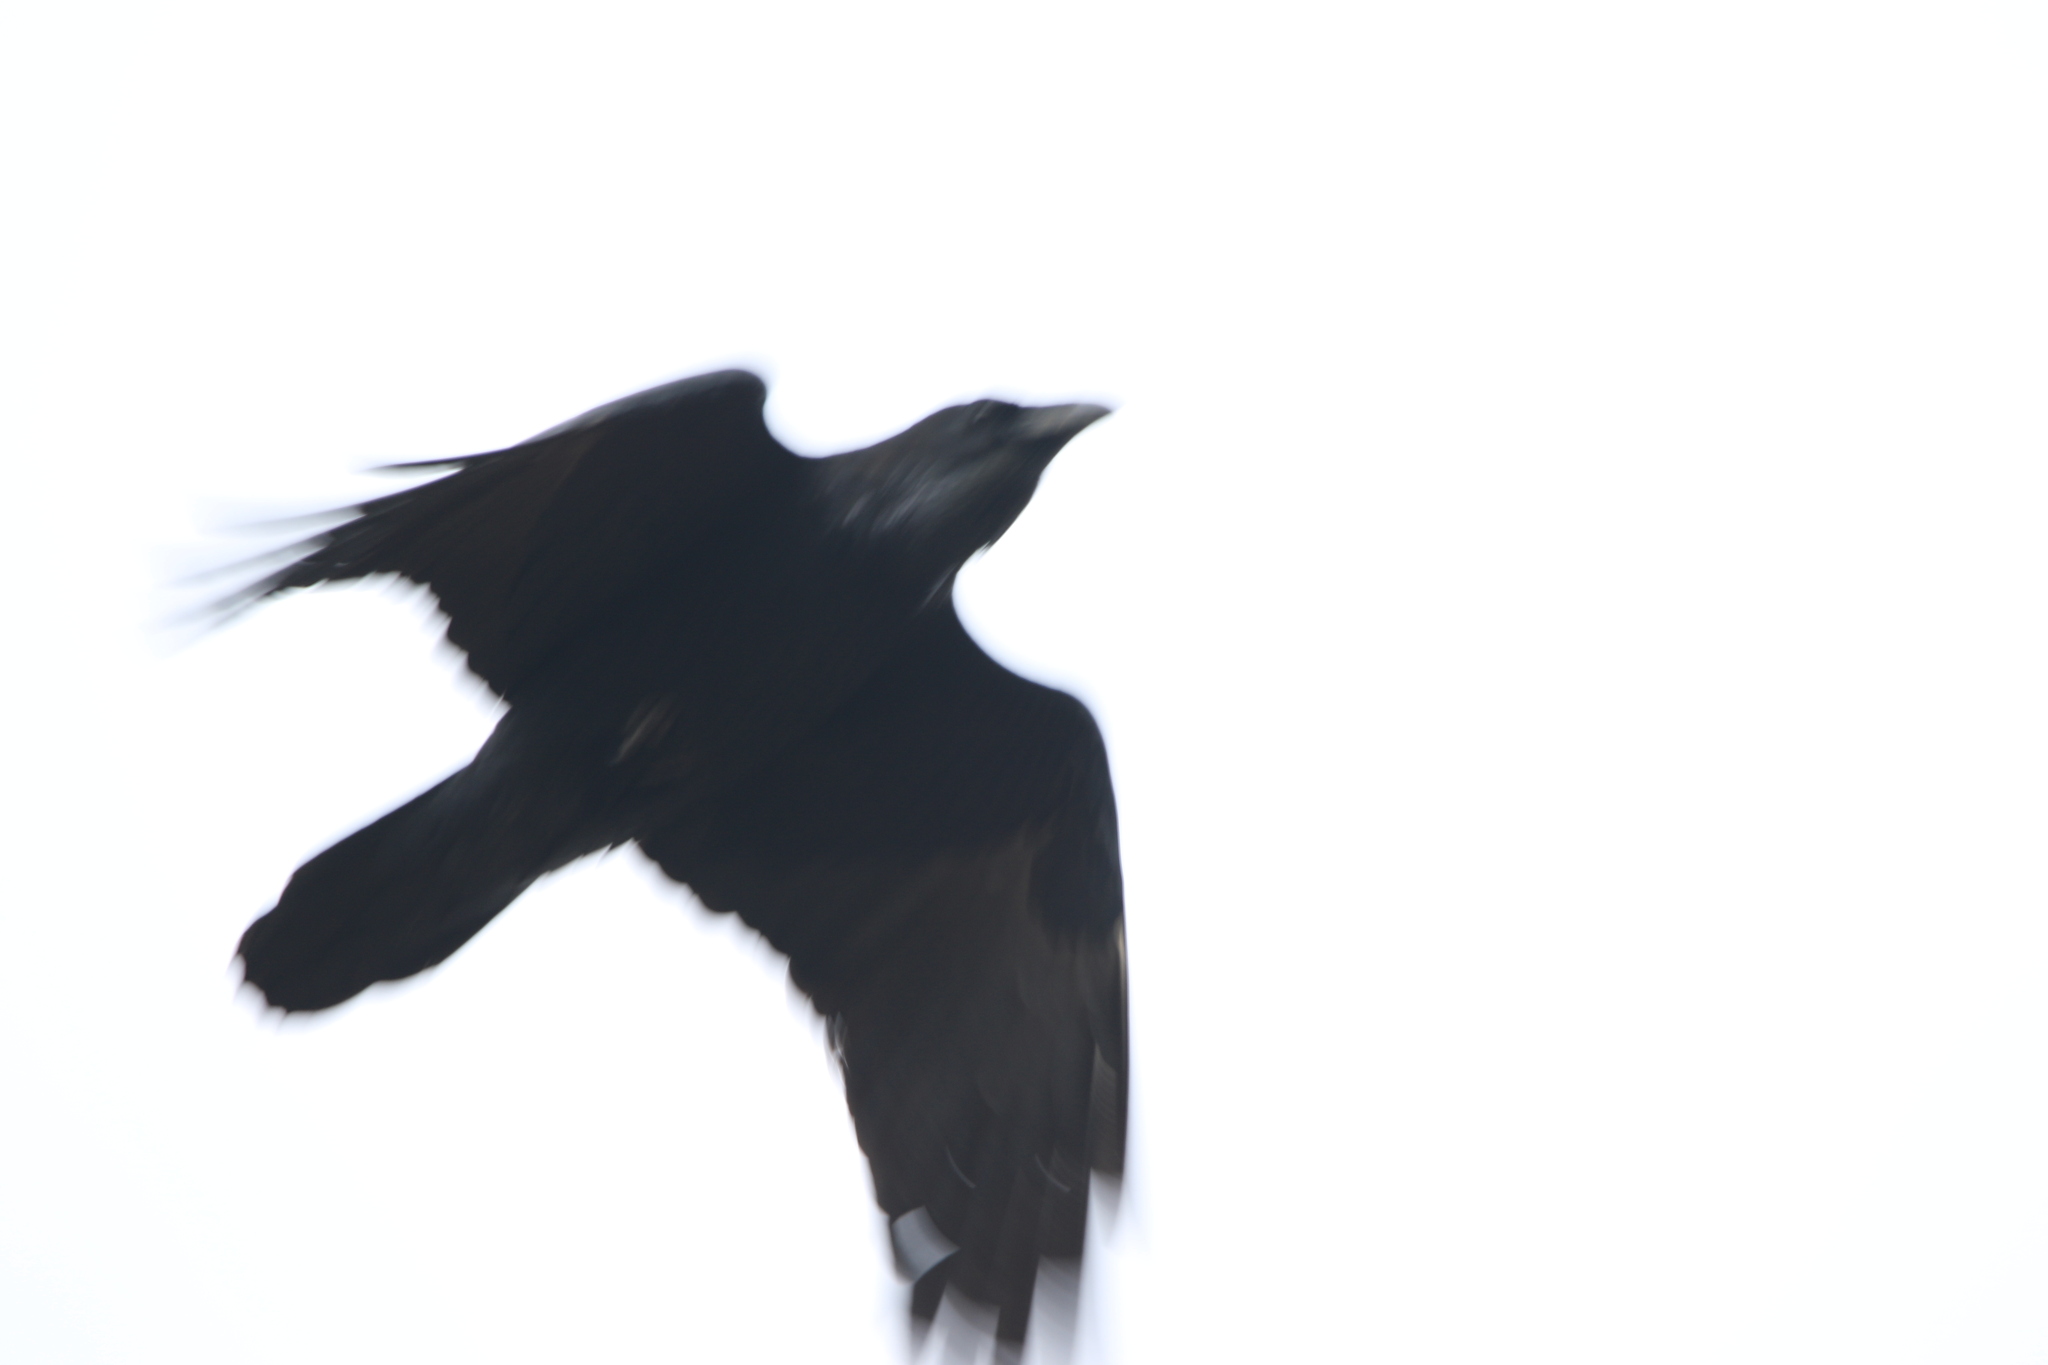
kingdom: Animalia
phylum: Chordata
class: Aves
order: Passeriformes
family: Corvidae
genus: Corvus
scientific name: Corvus brachyrhynchos
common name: American crow
